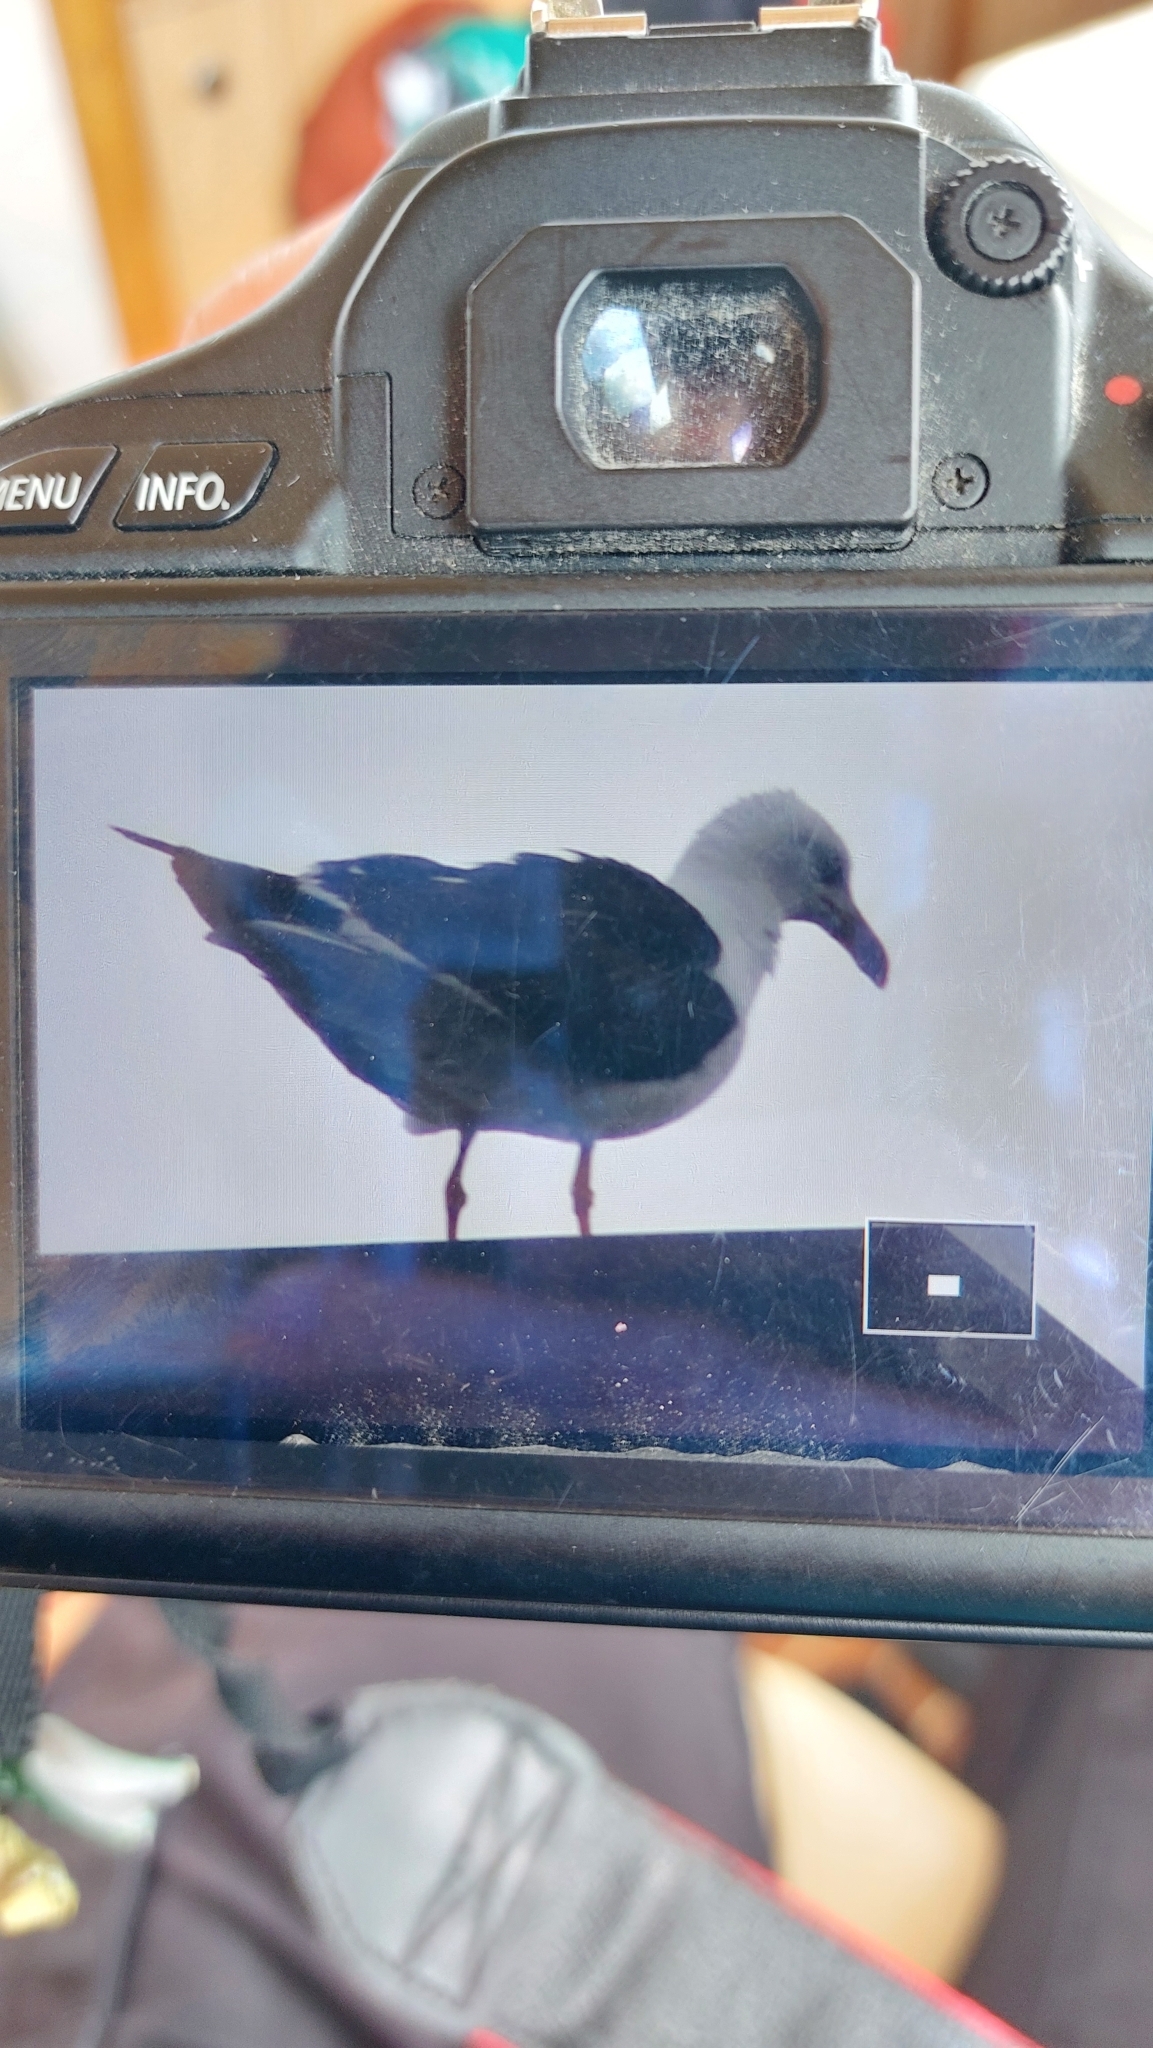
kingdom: Animalia
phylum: Chordata
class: Aves
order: Charadriiformes
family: Laridae
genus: Larus
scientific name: Larus fuscus
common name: Lesser black-backed gull
